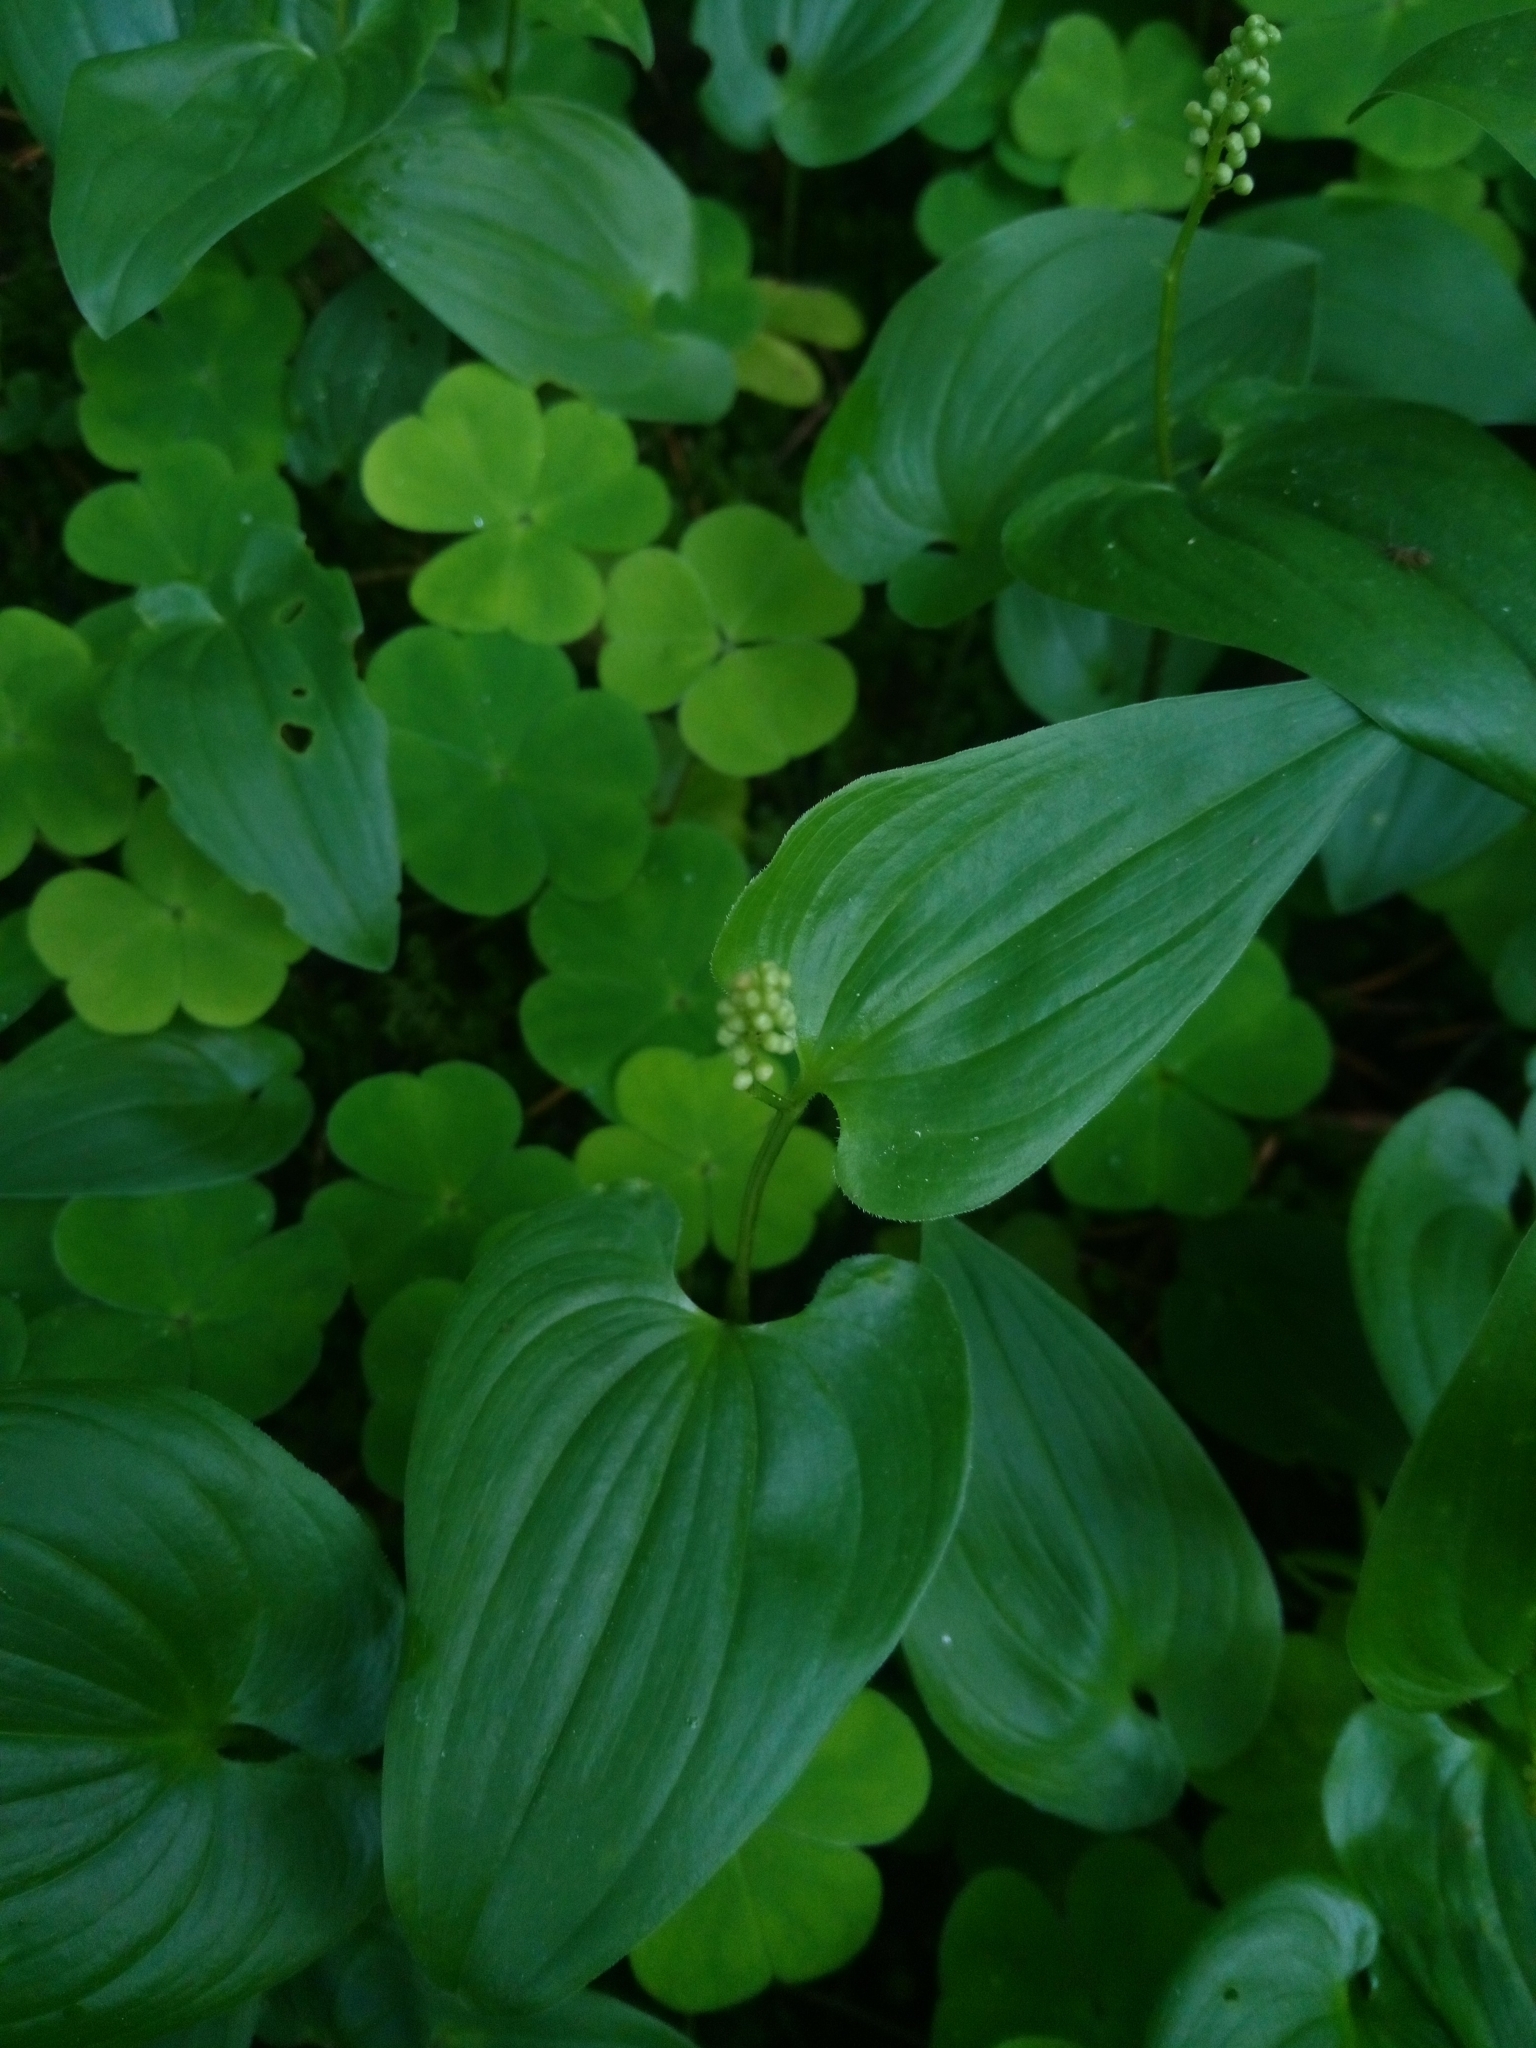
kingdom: Plantae
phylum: Tracheophyta
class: Liliopsida
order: Asparagales
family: Asparagaceae
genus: Maianthemum
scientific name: Maianthemum bifolium
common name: May lily
